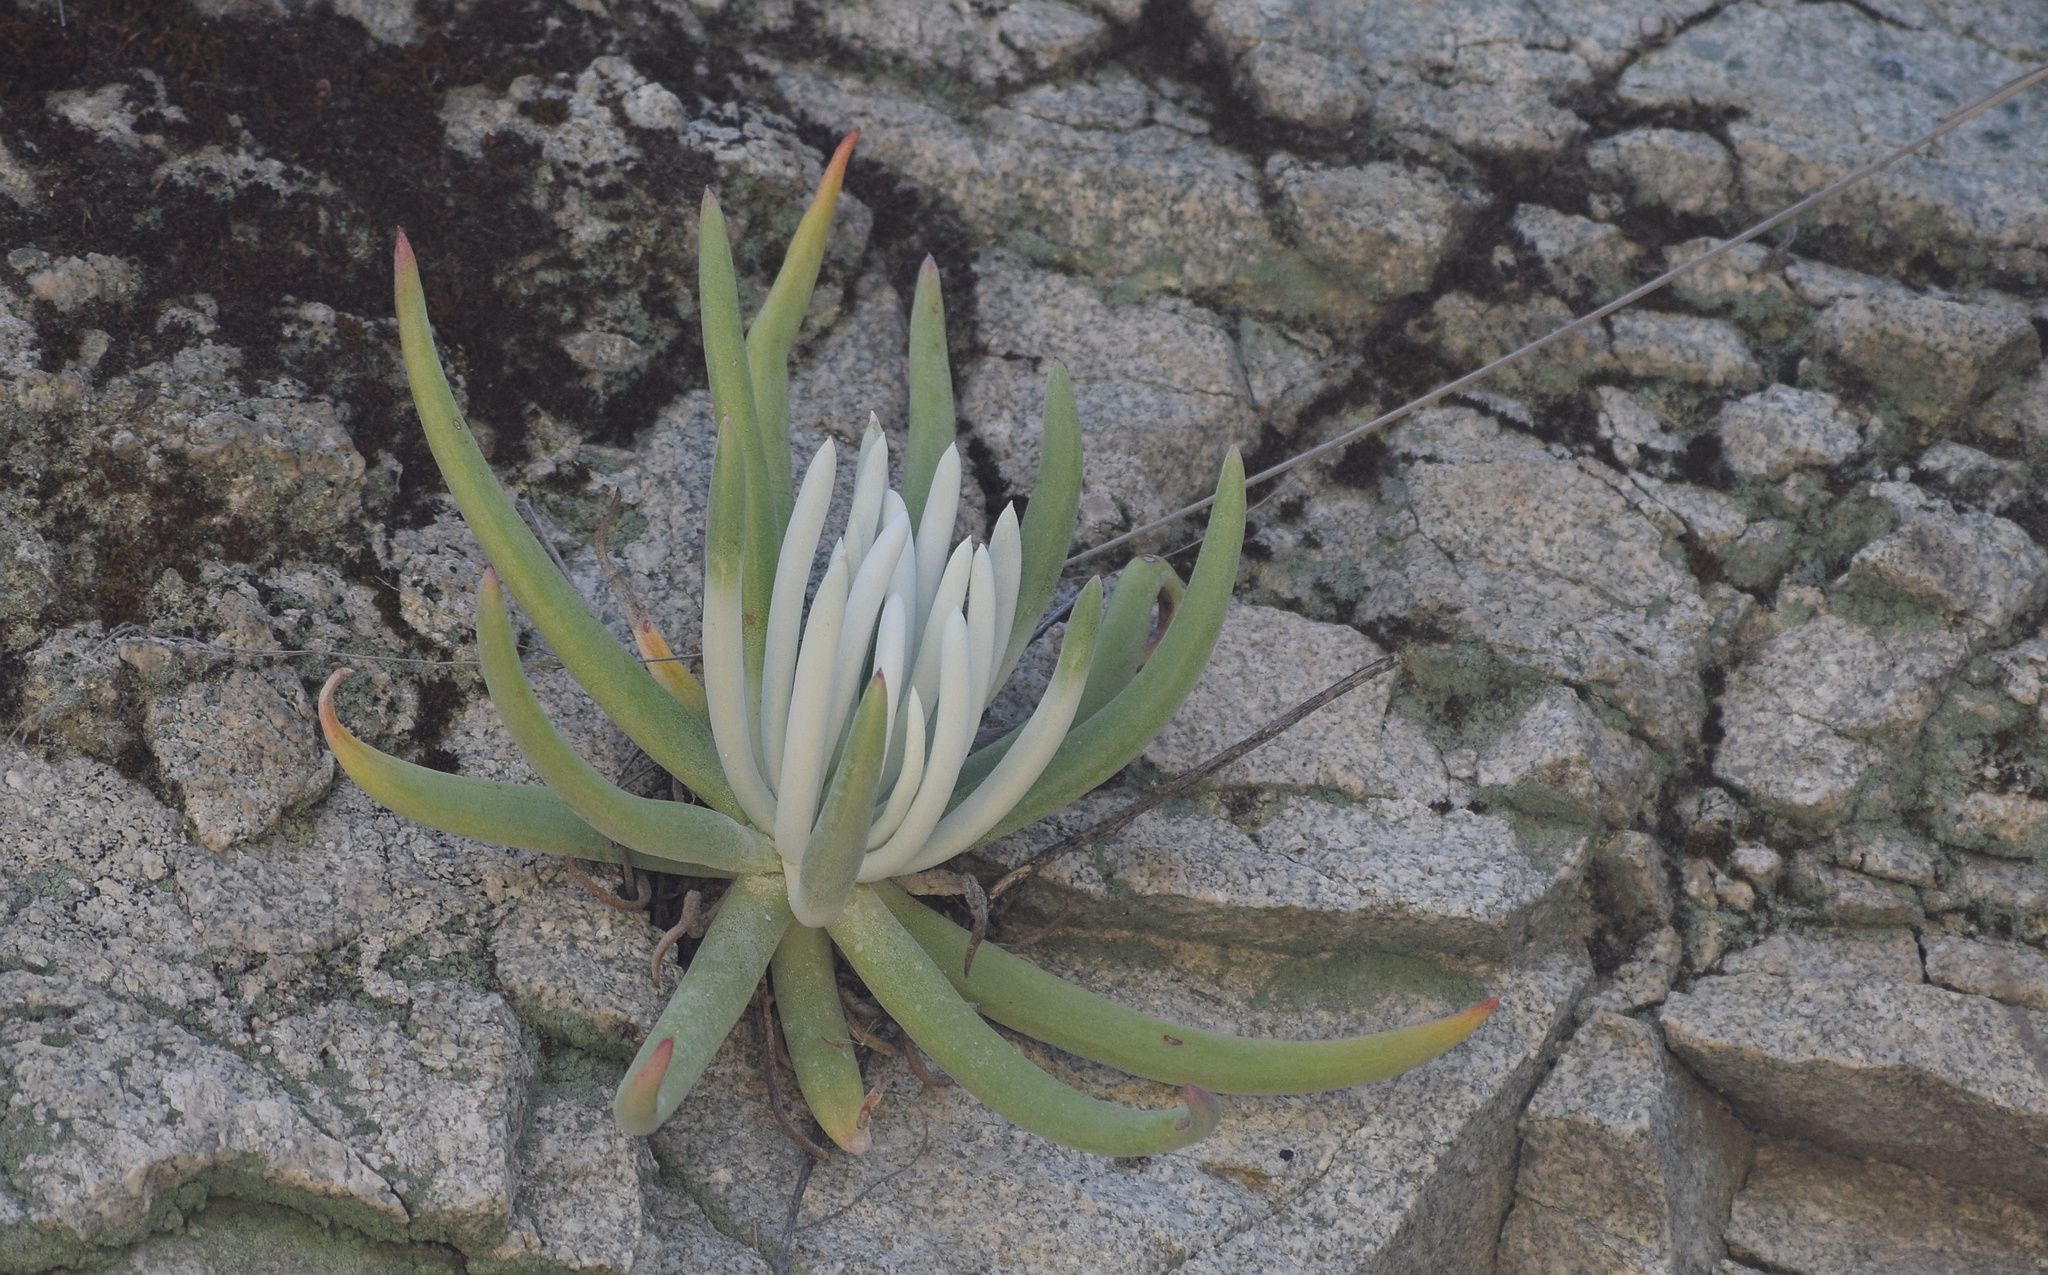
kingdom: Plantae
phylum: Tracheophyta
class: Magnoliopsida
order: Saxifragales
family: Crassulaceae
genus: Dudleya
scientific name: Dudleya densiflora
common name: San gabriel mountains dudleya
